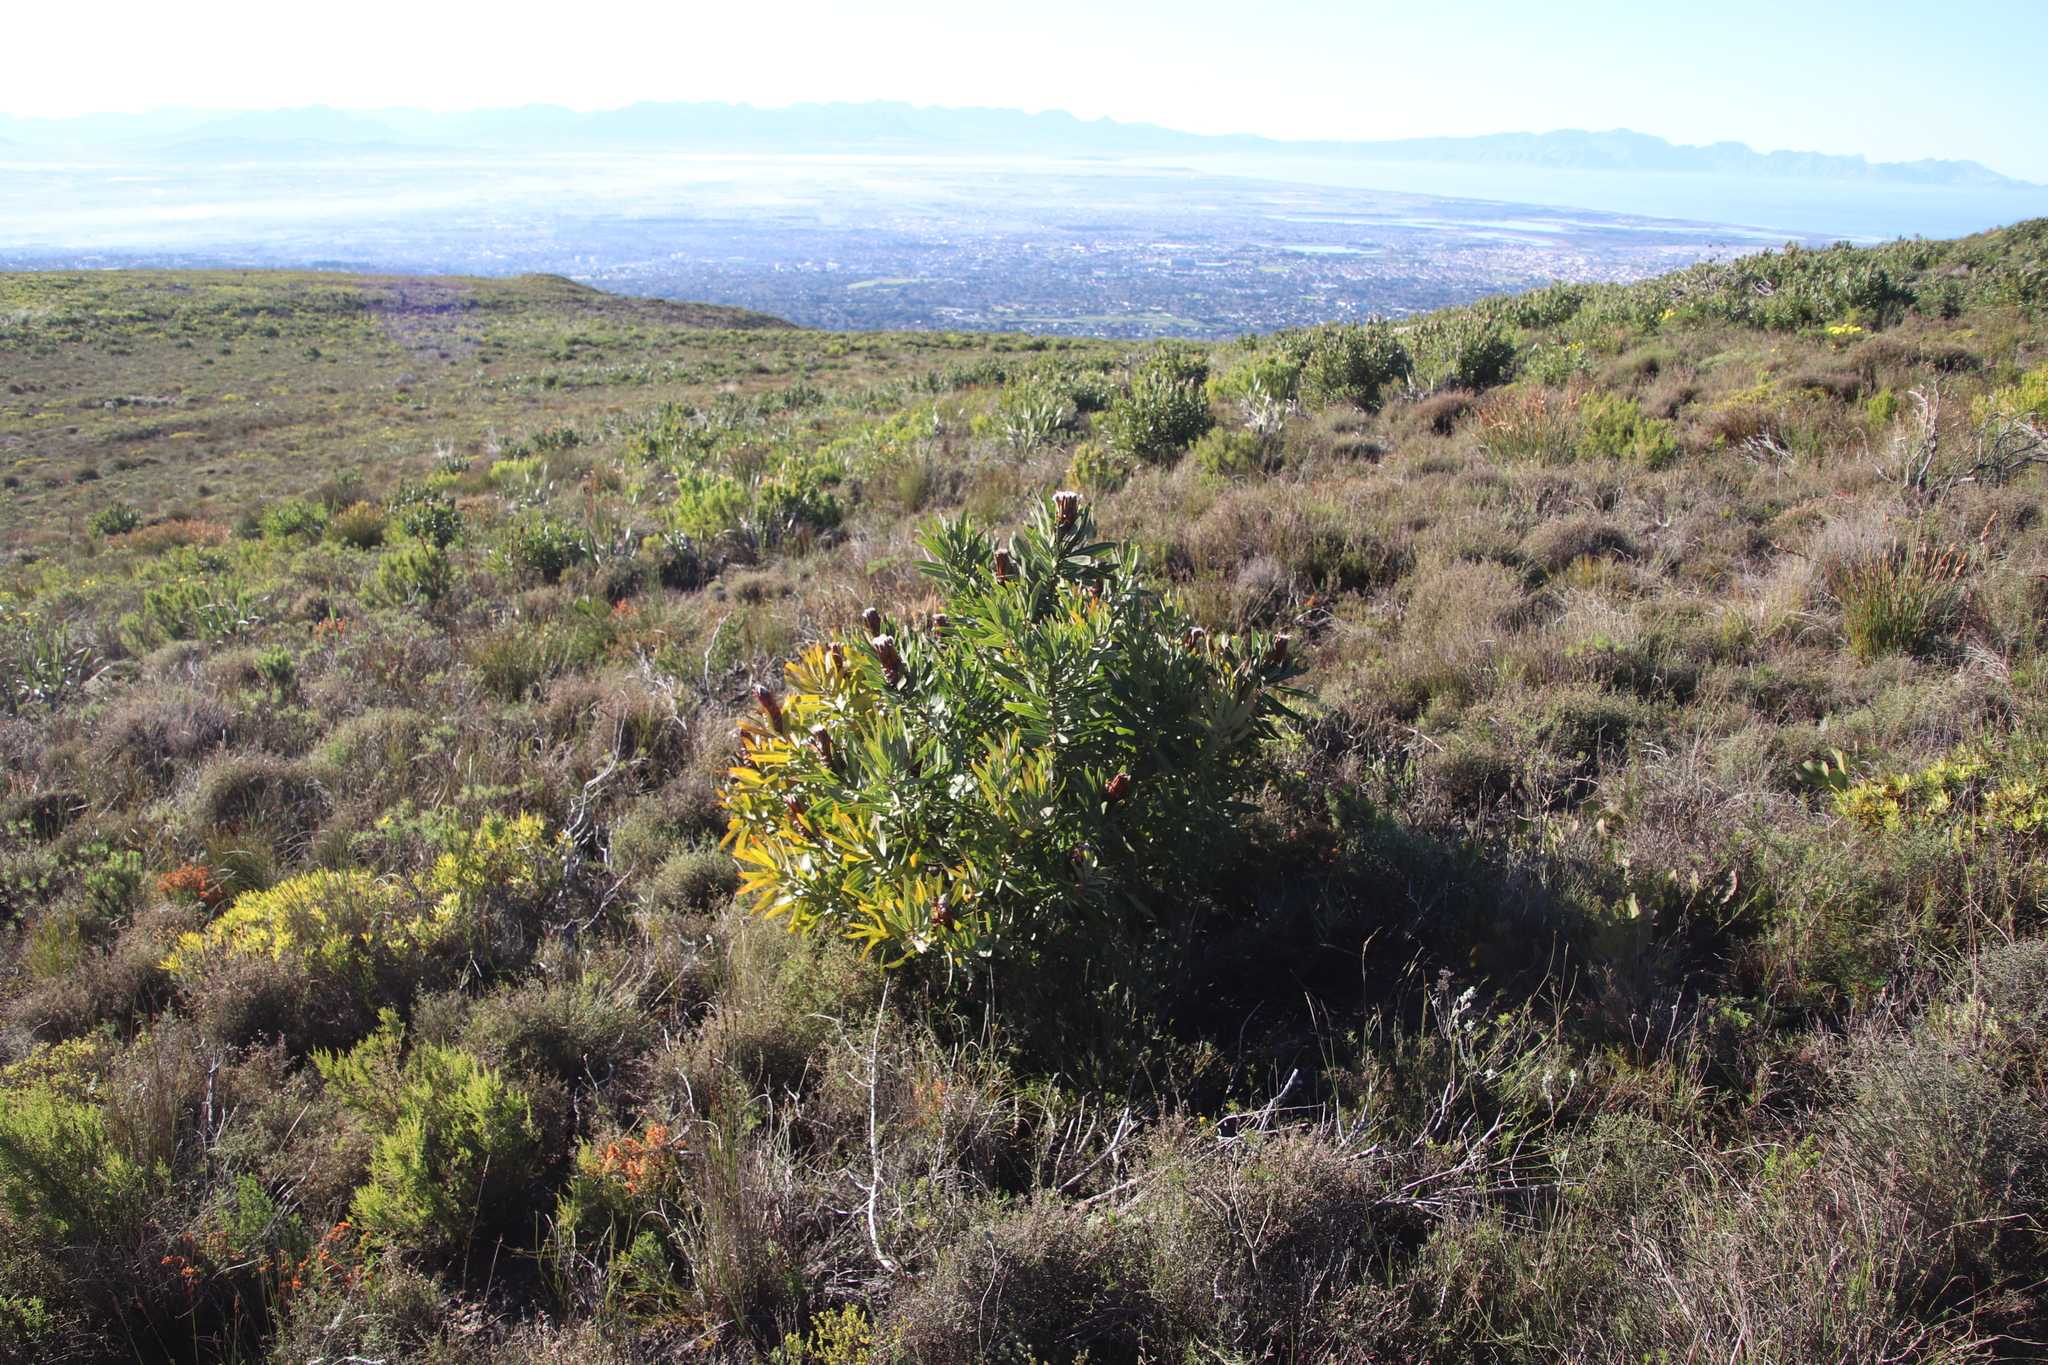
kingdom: Plantae
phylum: Tracheophyta
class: Magnoliopsida
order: Proteales
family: Proteaceae
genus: Protea
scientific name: Protea lepidocarpodendron
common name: Black-bearded protea
